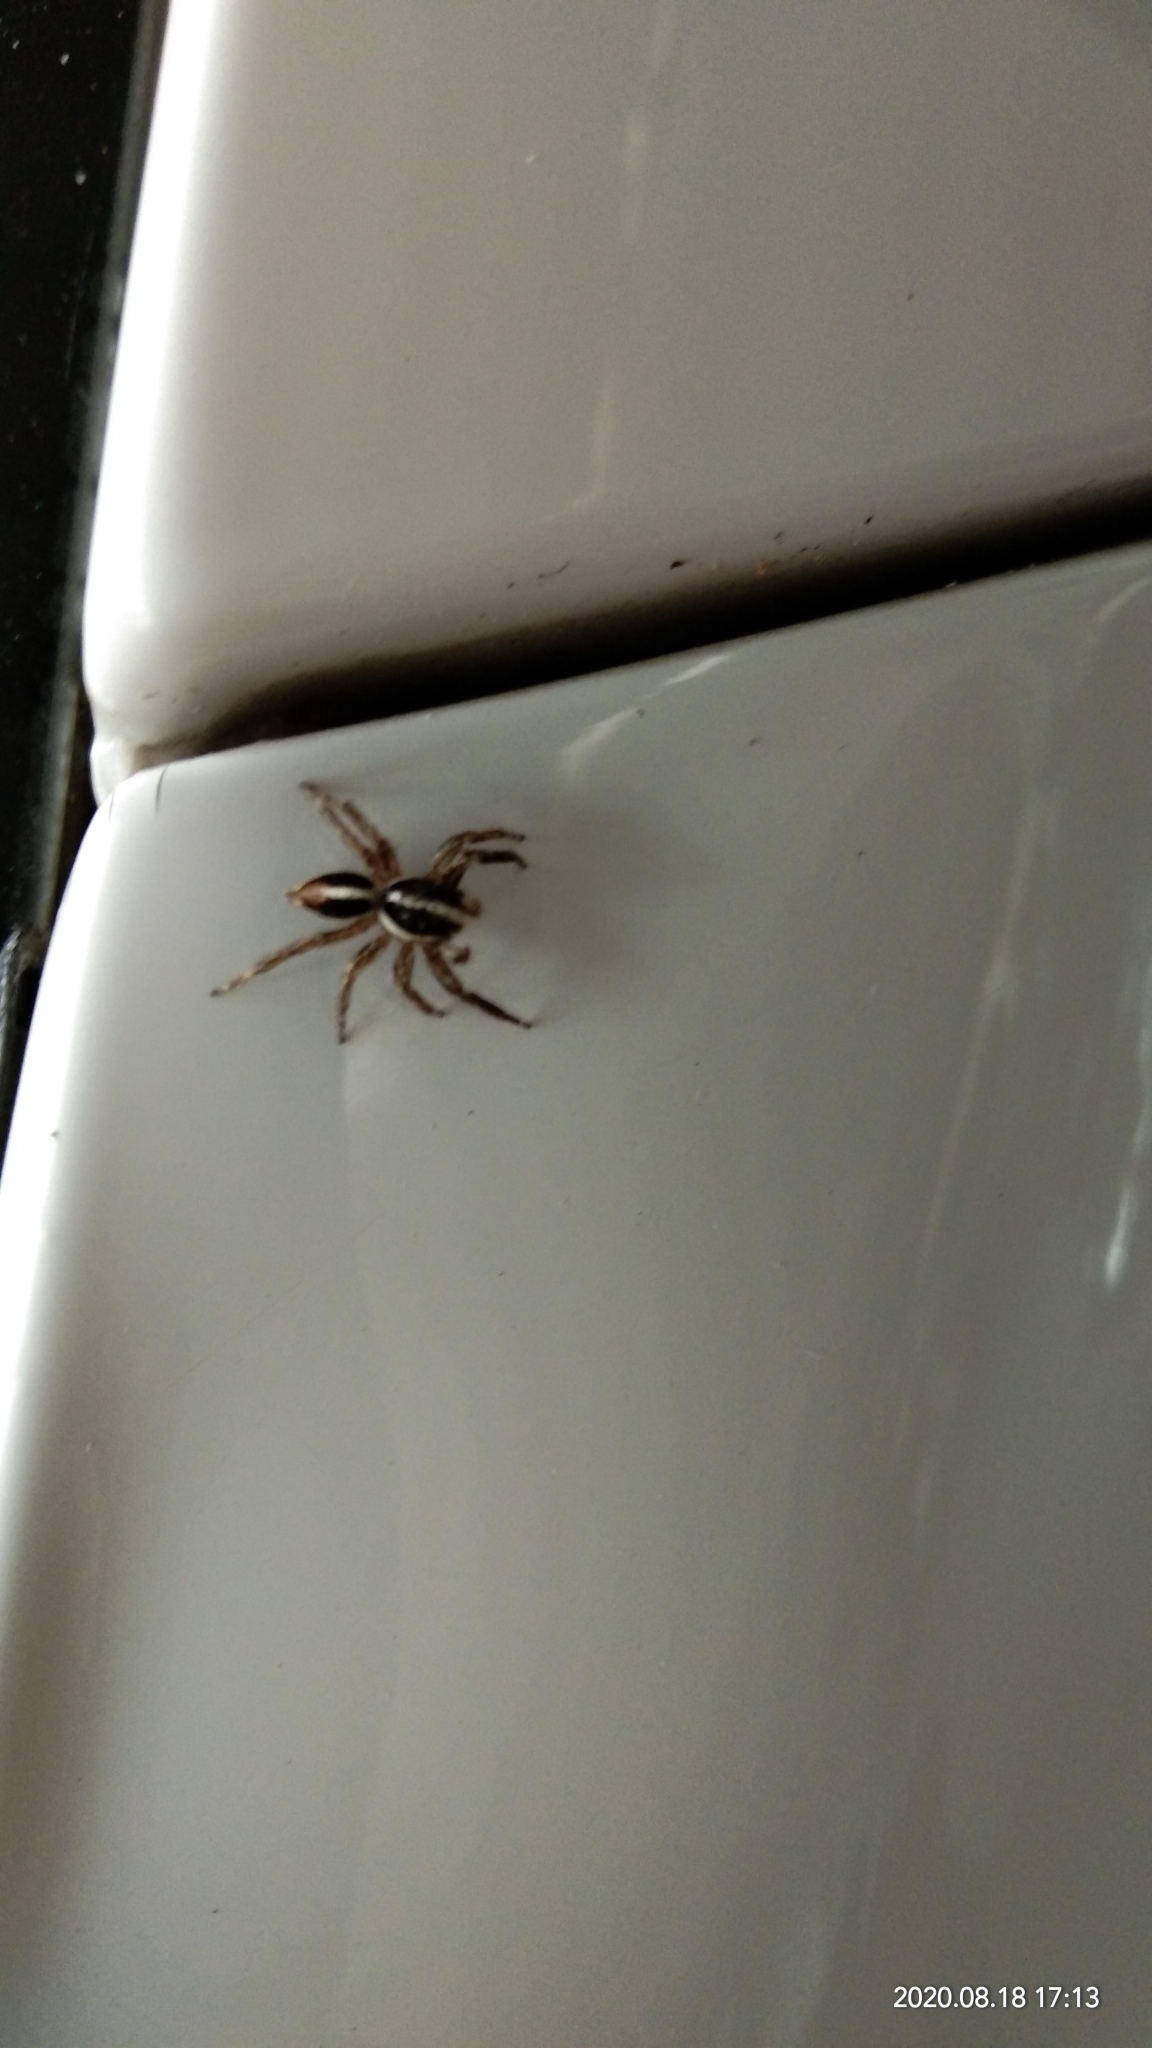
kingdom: Animalia
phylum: Arthropoda
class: Arachnida
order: Araneae
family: Salticidae
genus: Plexippus
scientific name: Plexippus paykulli
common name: Pantropical jumper
